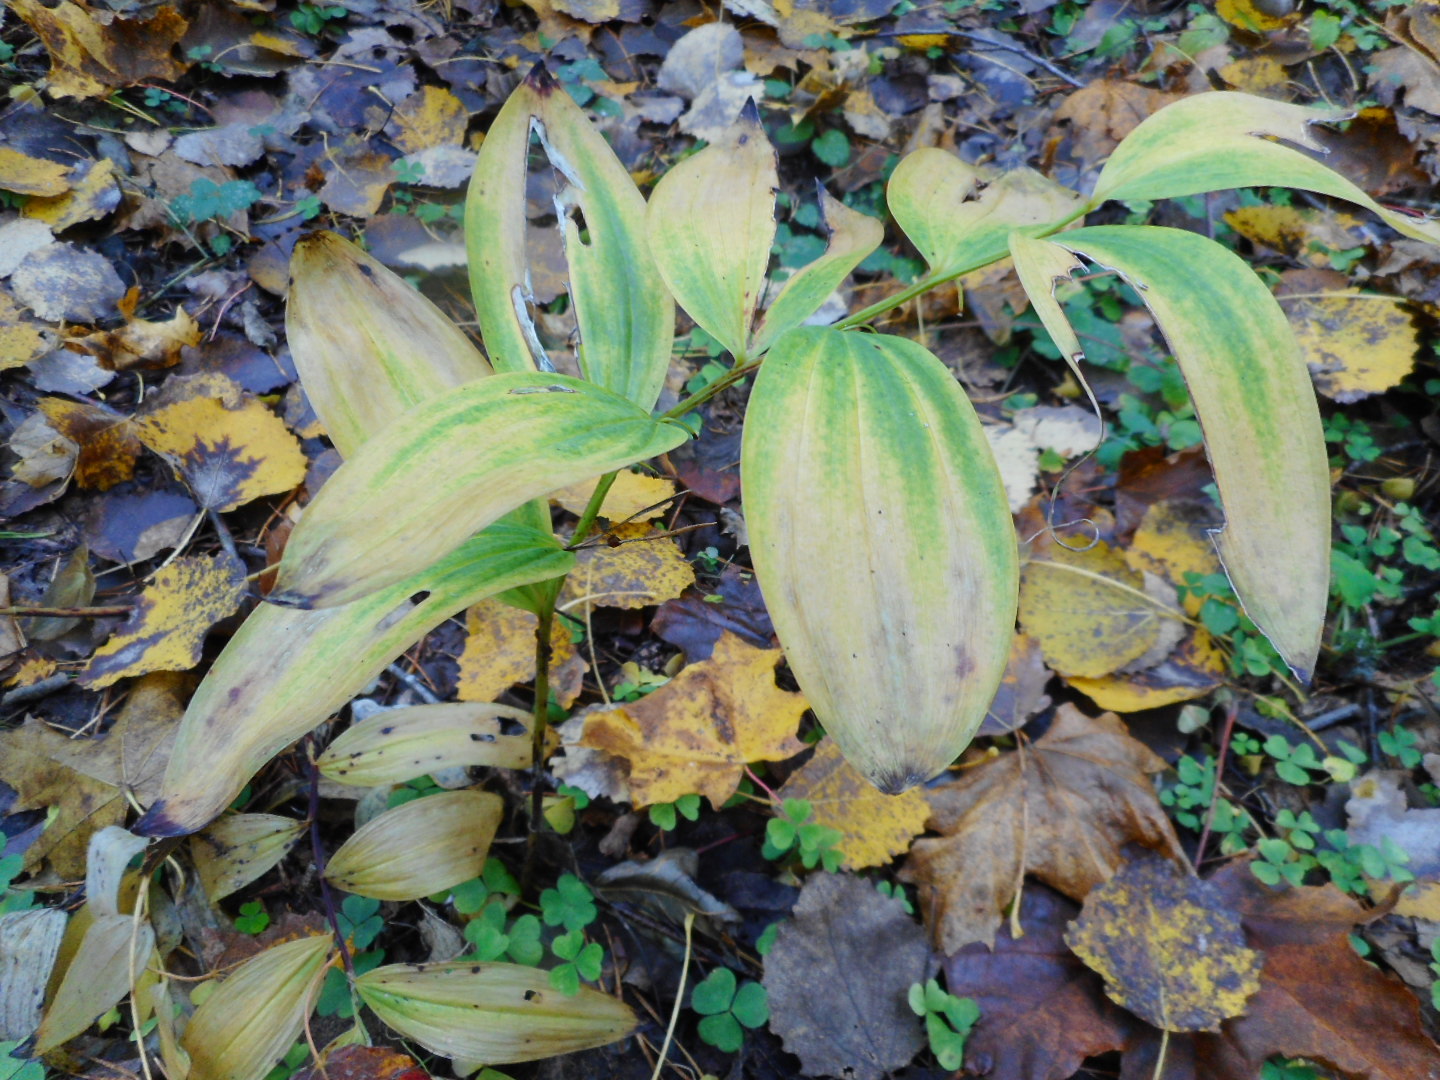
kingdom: Plantae
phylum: Tracheophyta
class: Liliopsida
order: Asparagales
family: Asparagaceae
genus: Polygonatum
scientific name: Polygonatum odoratum
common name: Angular solomon's-seal
